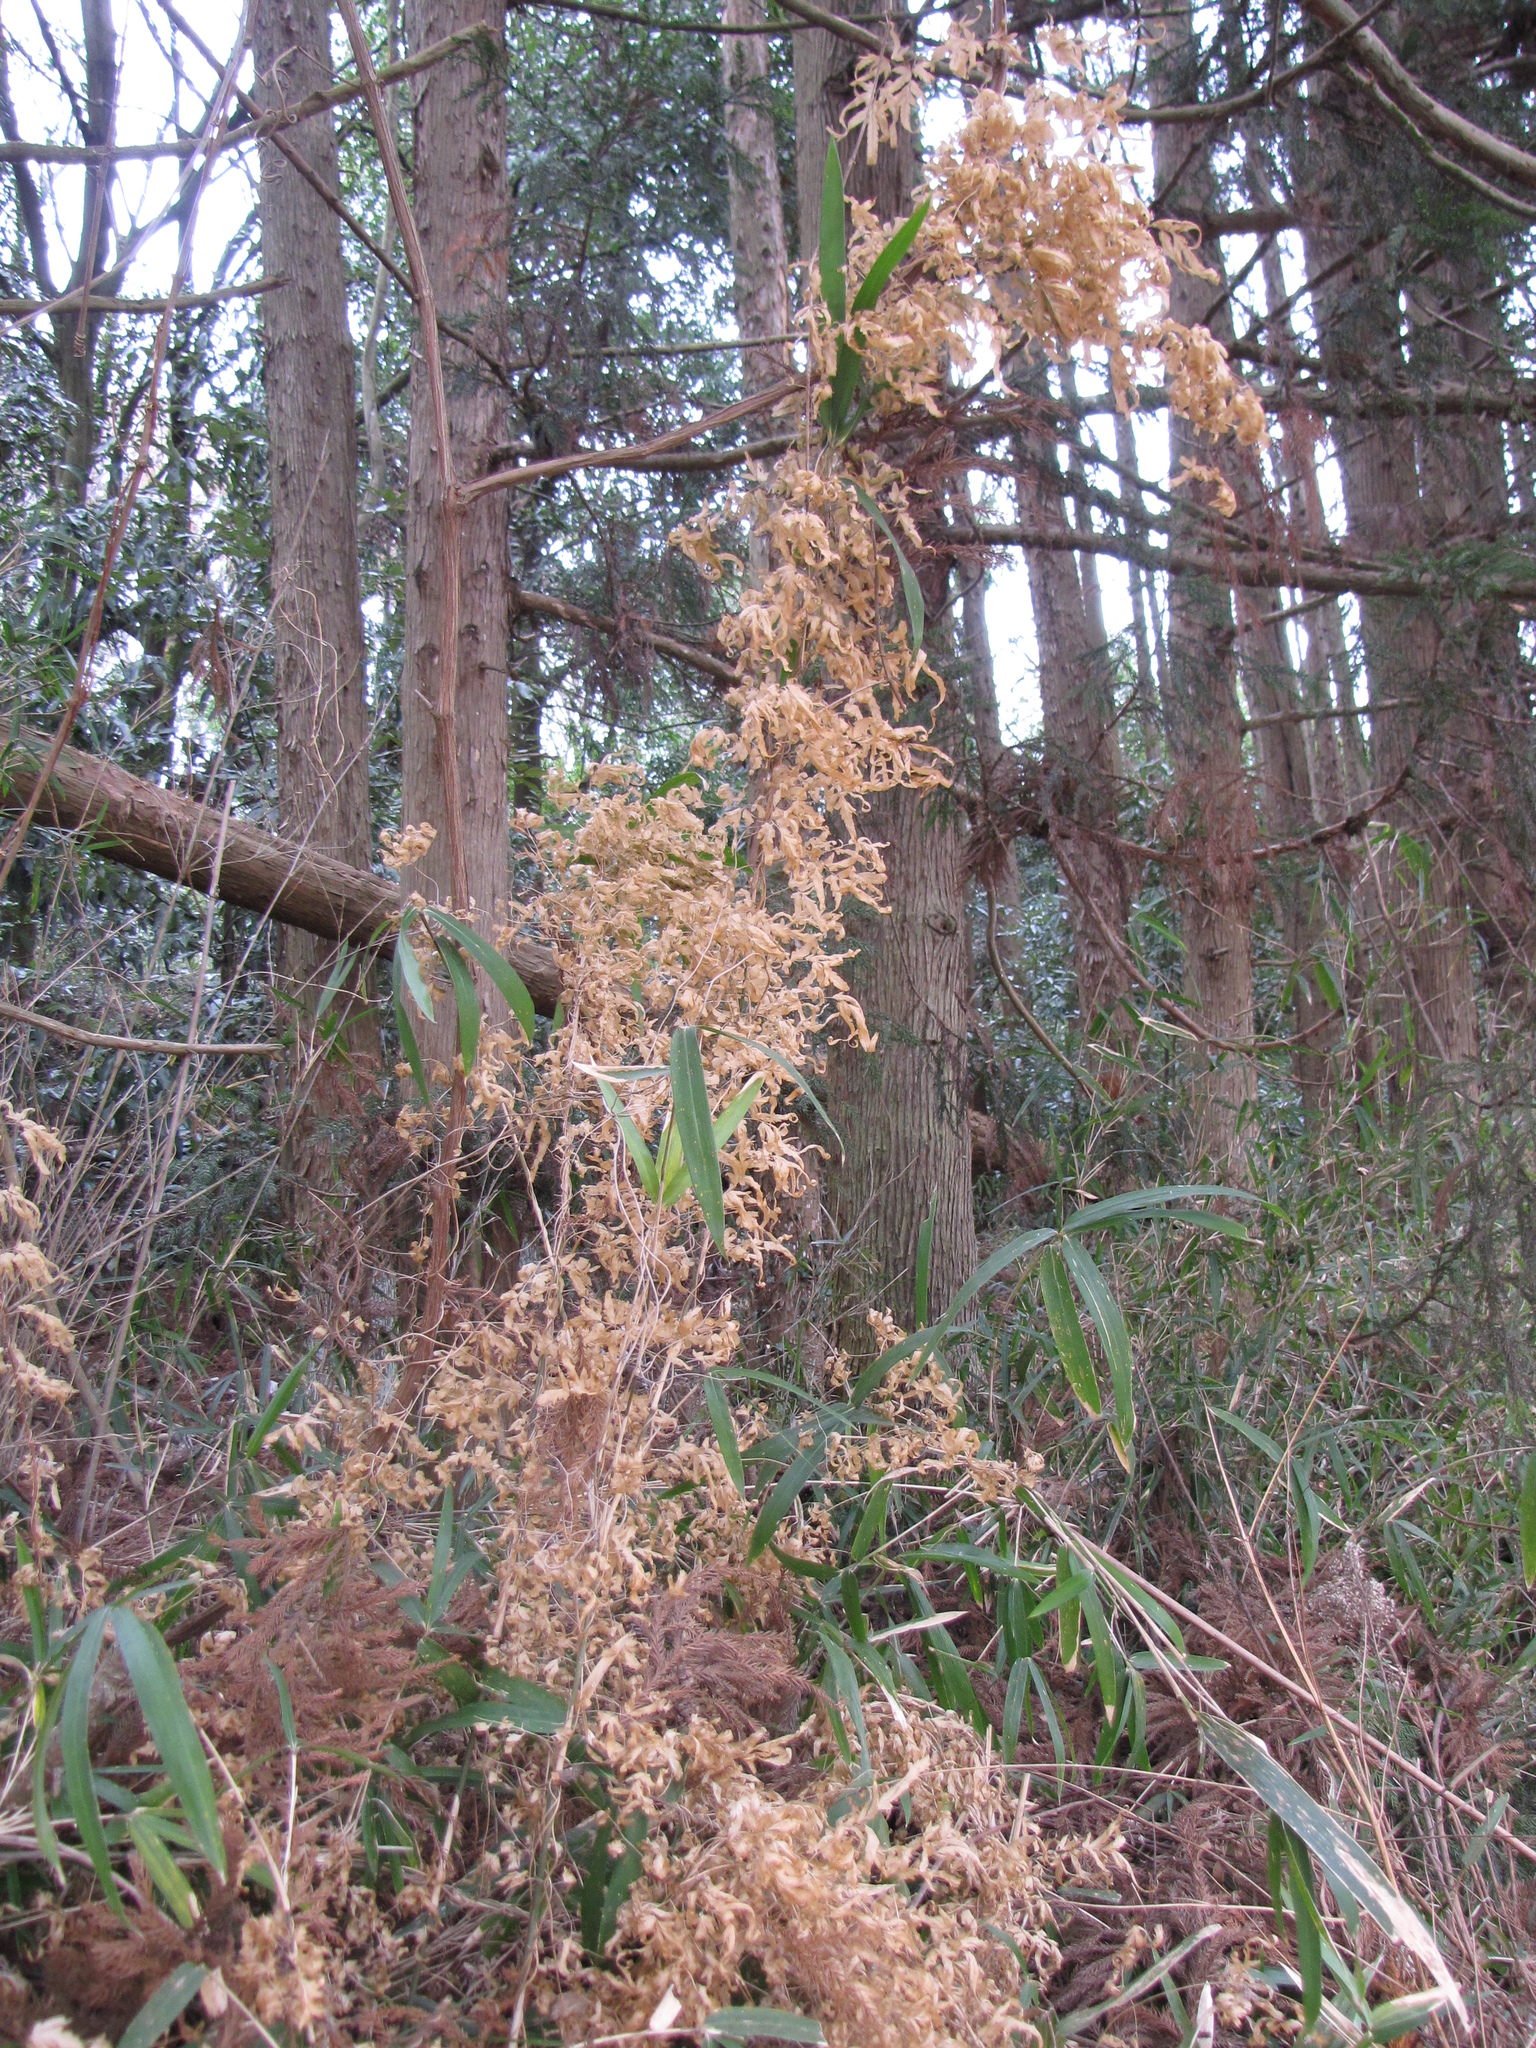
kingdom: Plantae
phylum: Tracheophyta
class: Polypodiopsida
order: Schizaeales
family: Lygodiaceae
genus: Lygodium
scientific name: Lygodium japonicum
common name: Japanese climbing fern
